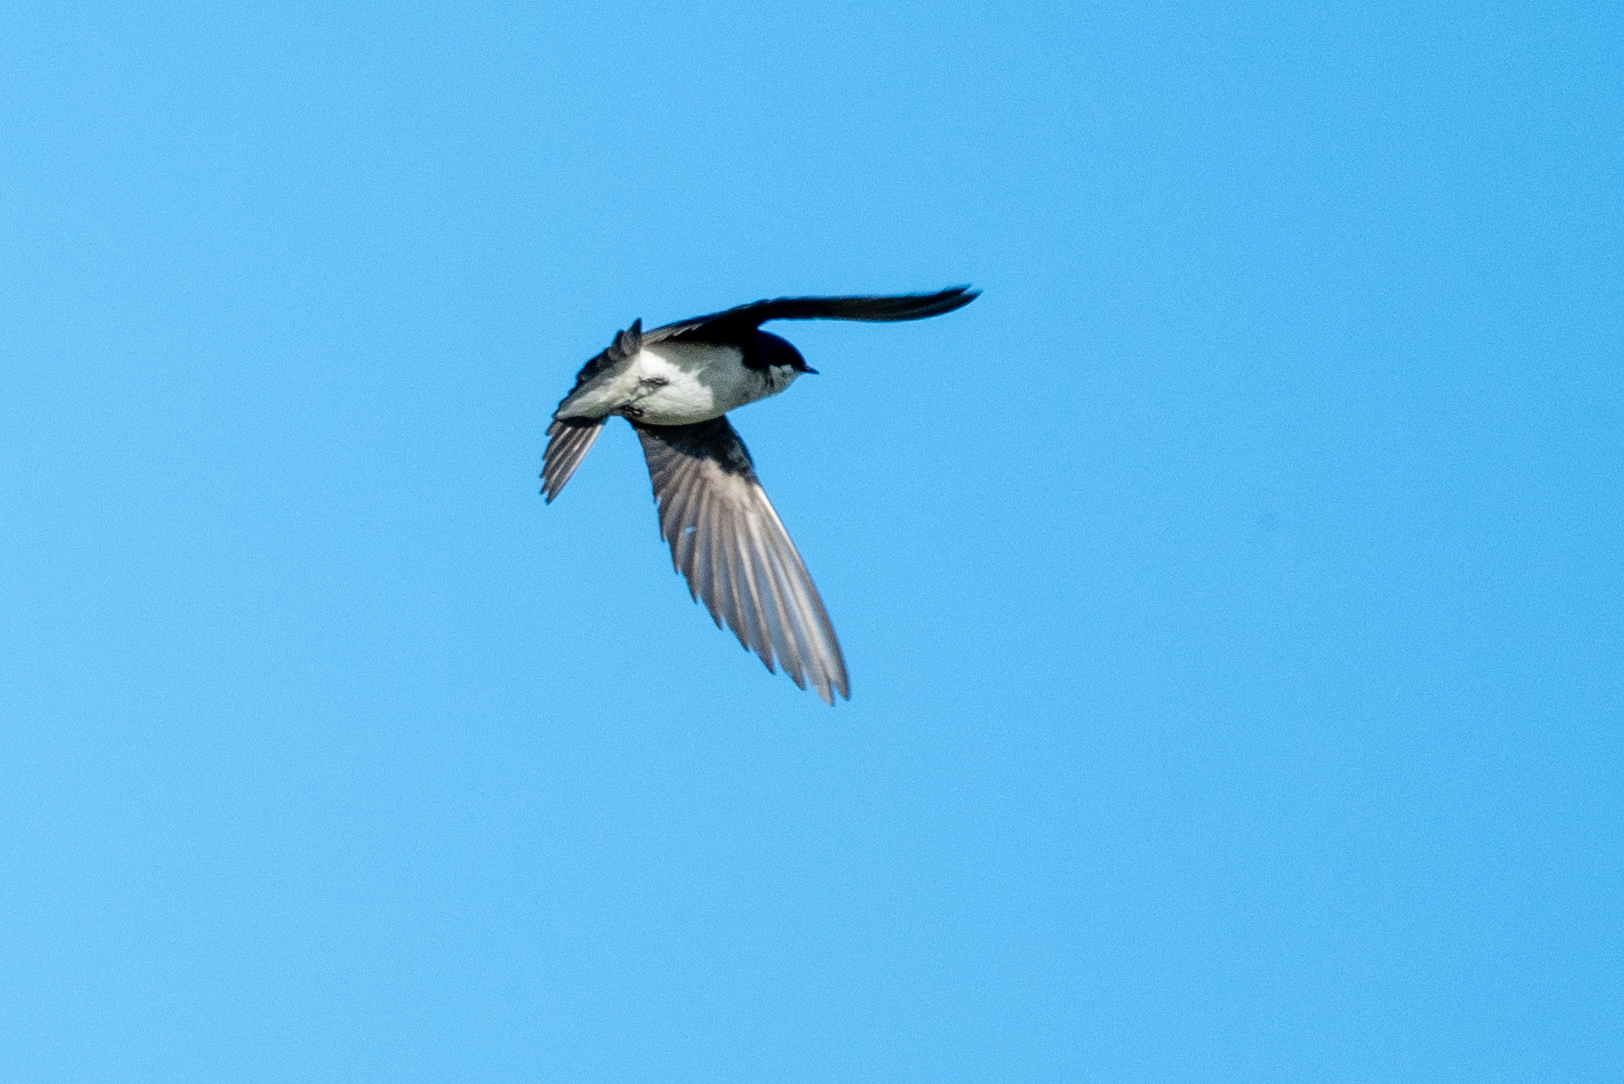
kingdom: Animalia
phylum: Chordata
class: Aves
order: Passeriformes
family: Hirundinidae
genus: Tachycineta
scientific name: Tachycineta bicolor
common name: Tree swallow
